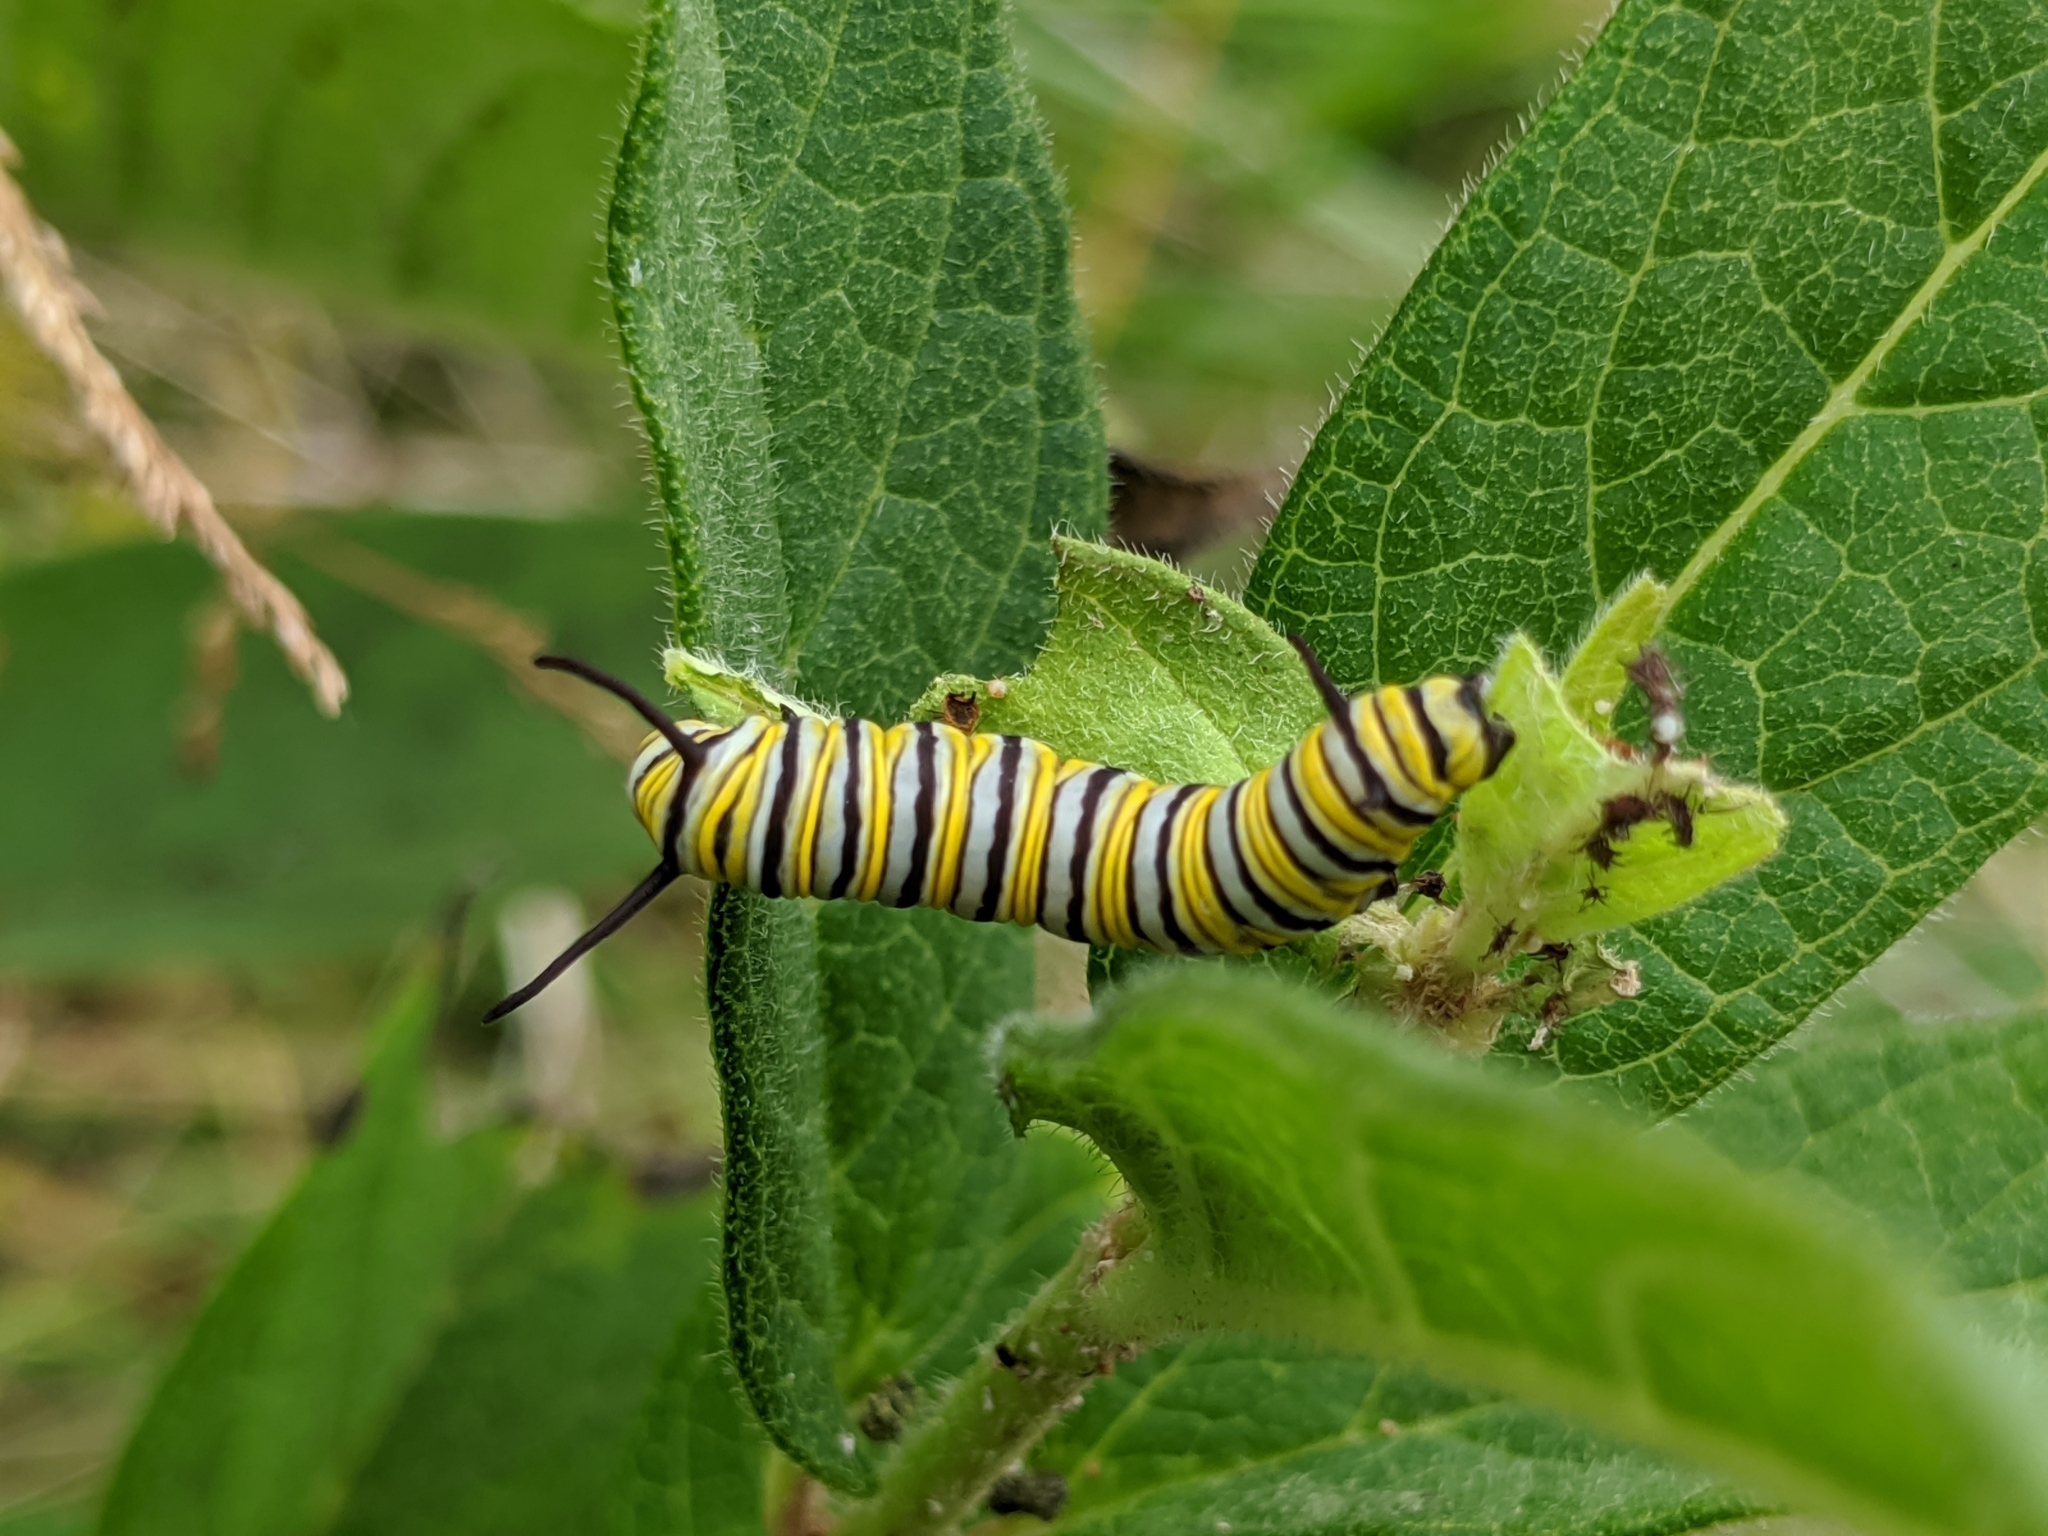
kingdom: Animalia
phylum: Arthropoda
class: Insecta
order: Lepidoptera
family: Nymphalidae
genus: Danaus
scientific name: Danaus plexippus
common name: Monarch
